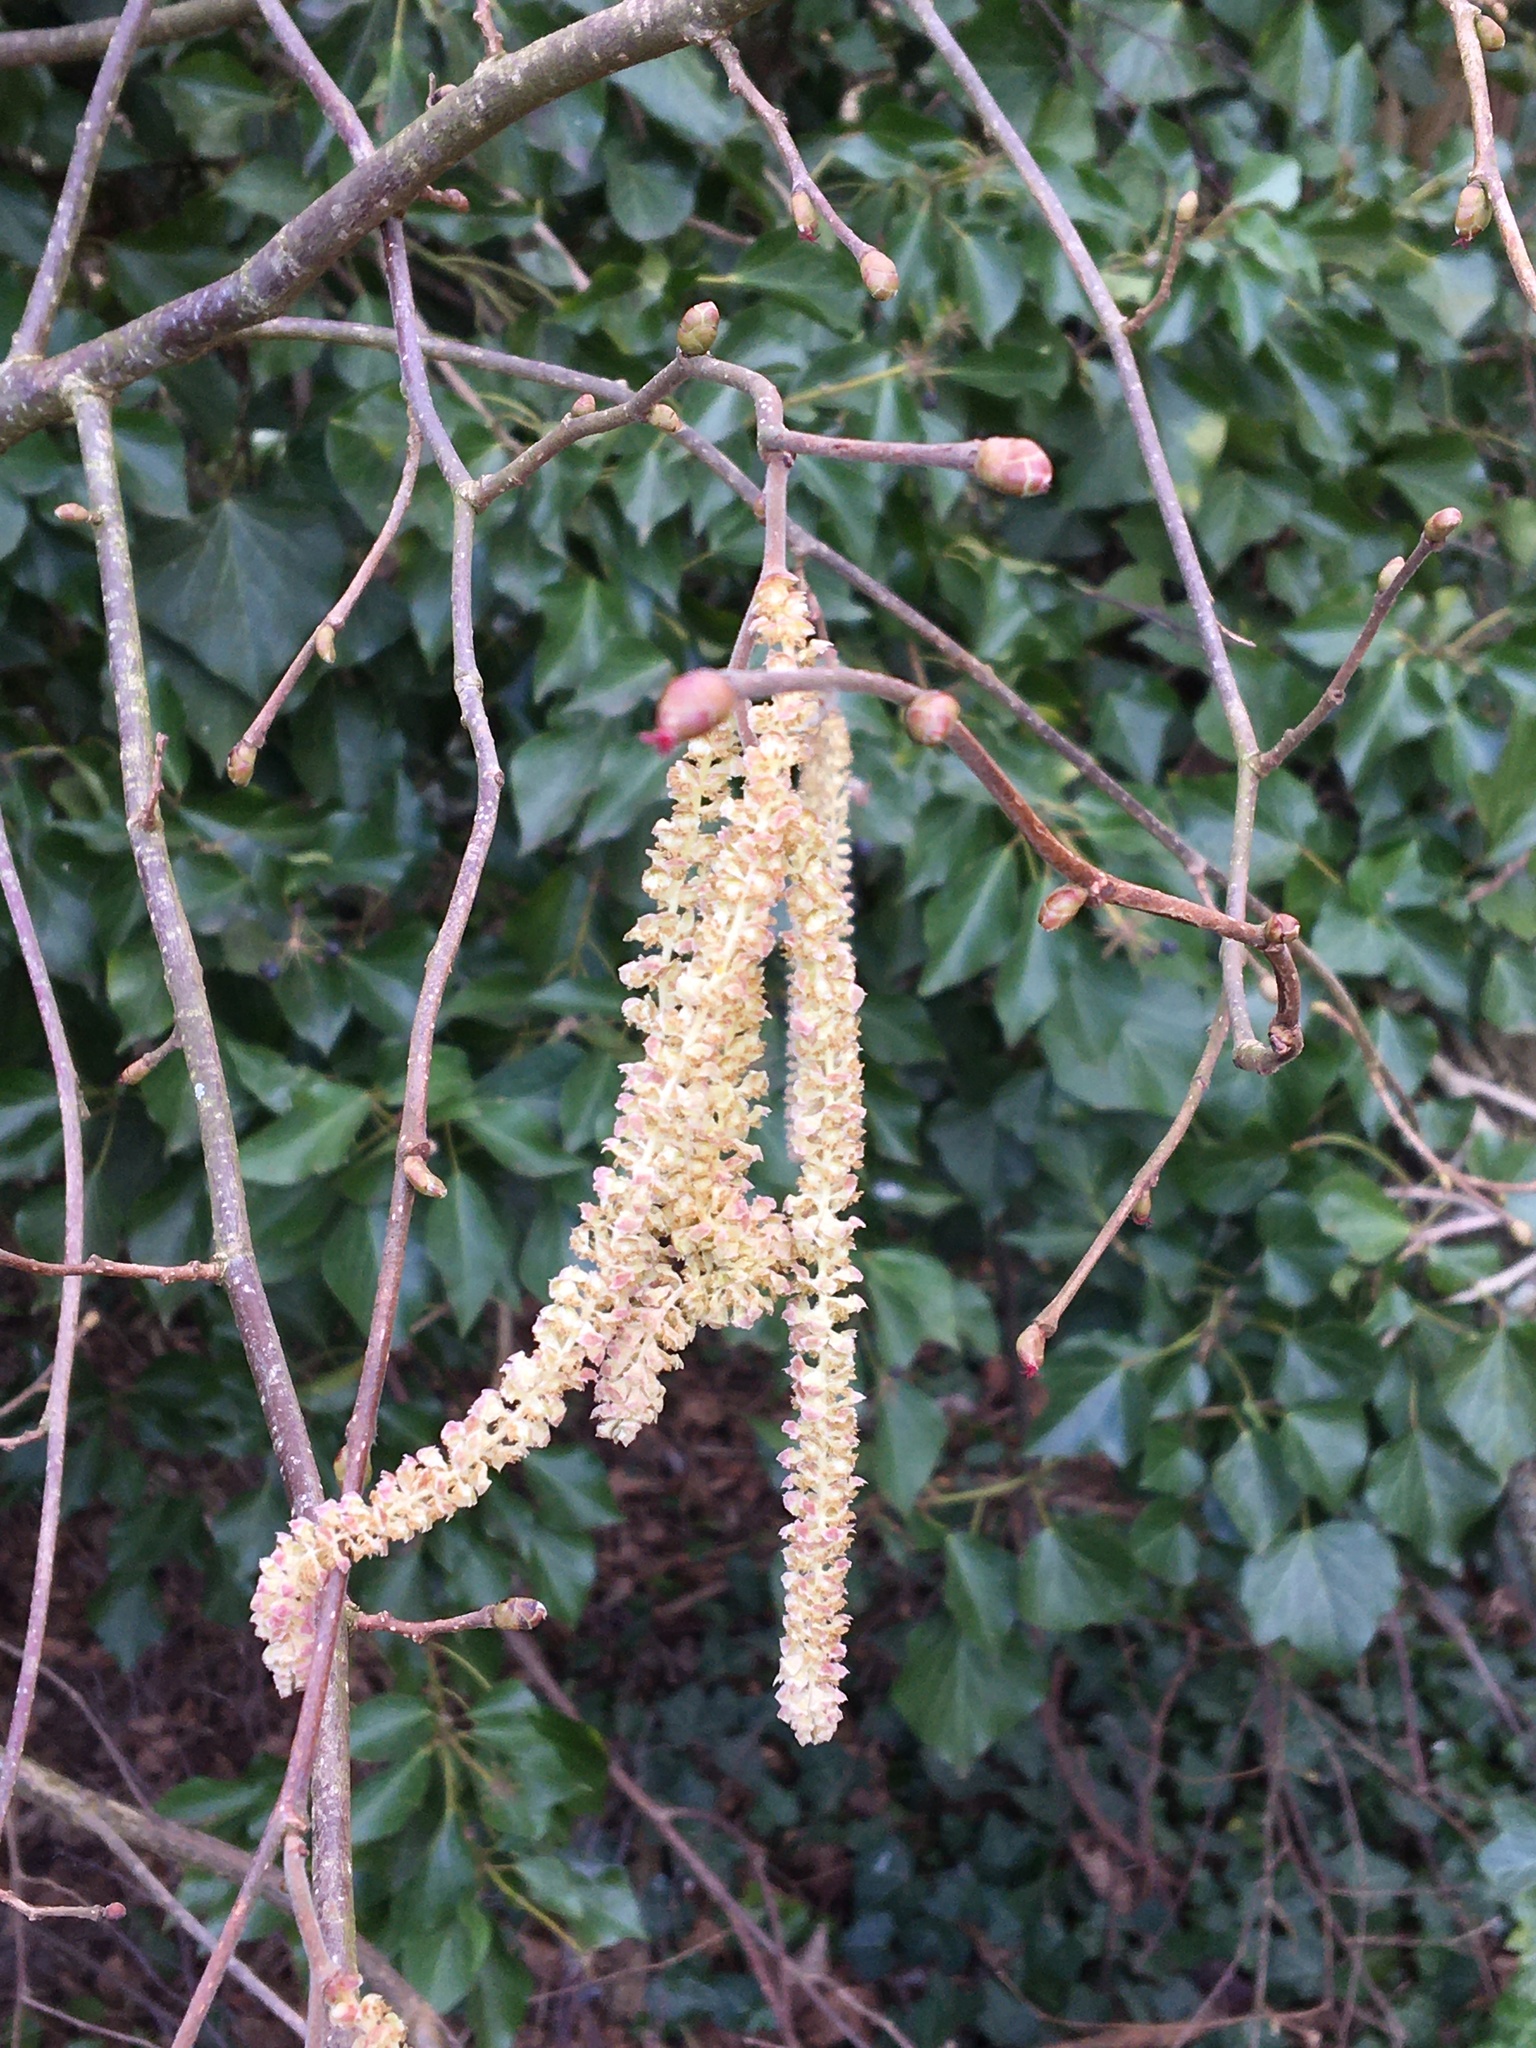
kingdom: Plantae
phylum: Tracheophyta
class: Magnoliopsida
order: Fagales
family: Betulaceae
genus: Corylus
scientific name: Corylus avellana
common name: European hazel
